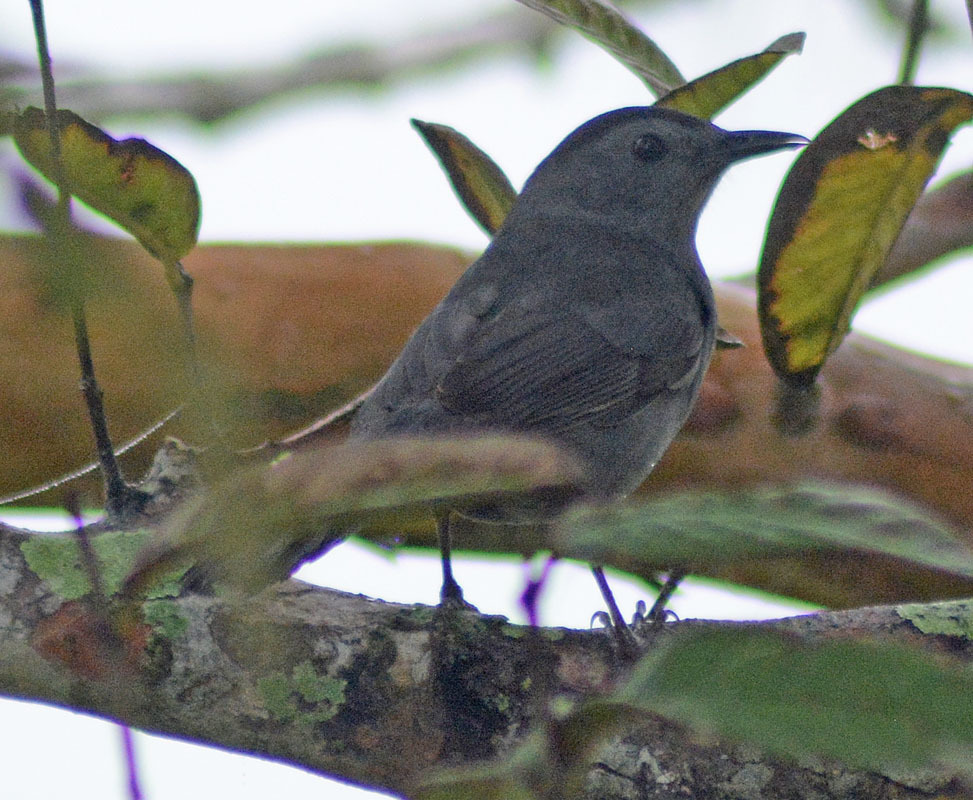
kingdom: Animalia
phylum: Chordata
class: Aves
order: Passeriformes
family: Mimidae
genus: Dumetella
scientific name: Dumetella carolinensis
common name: Gray catbird
